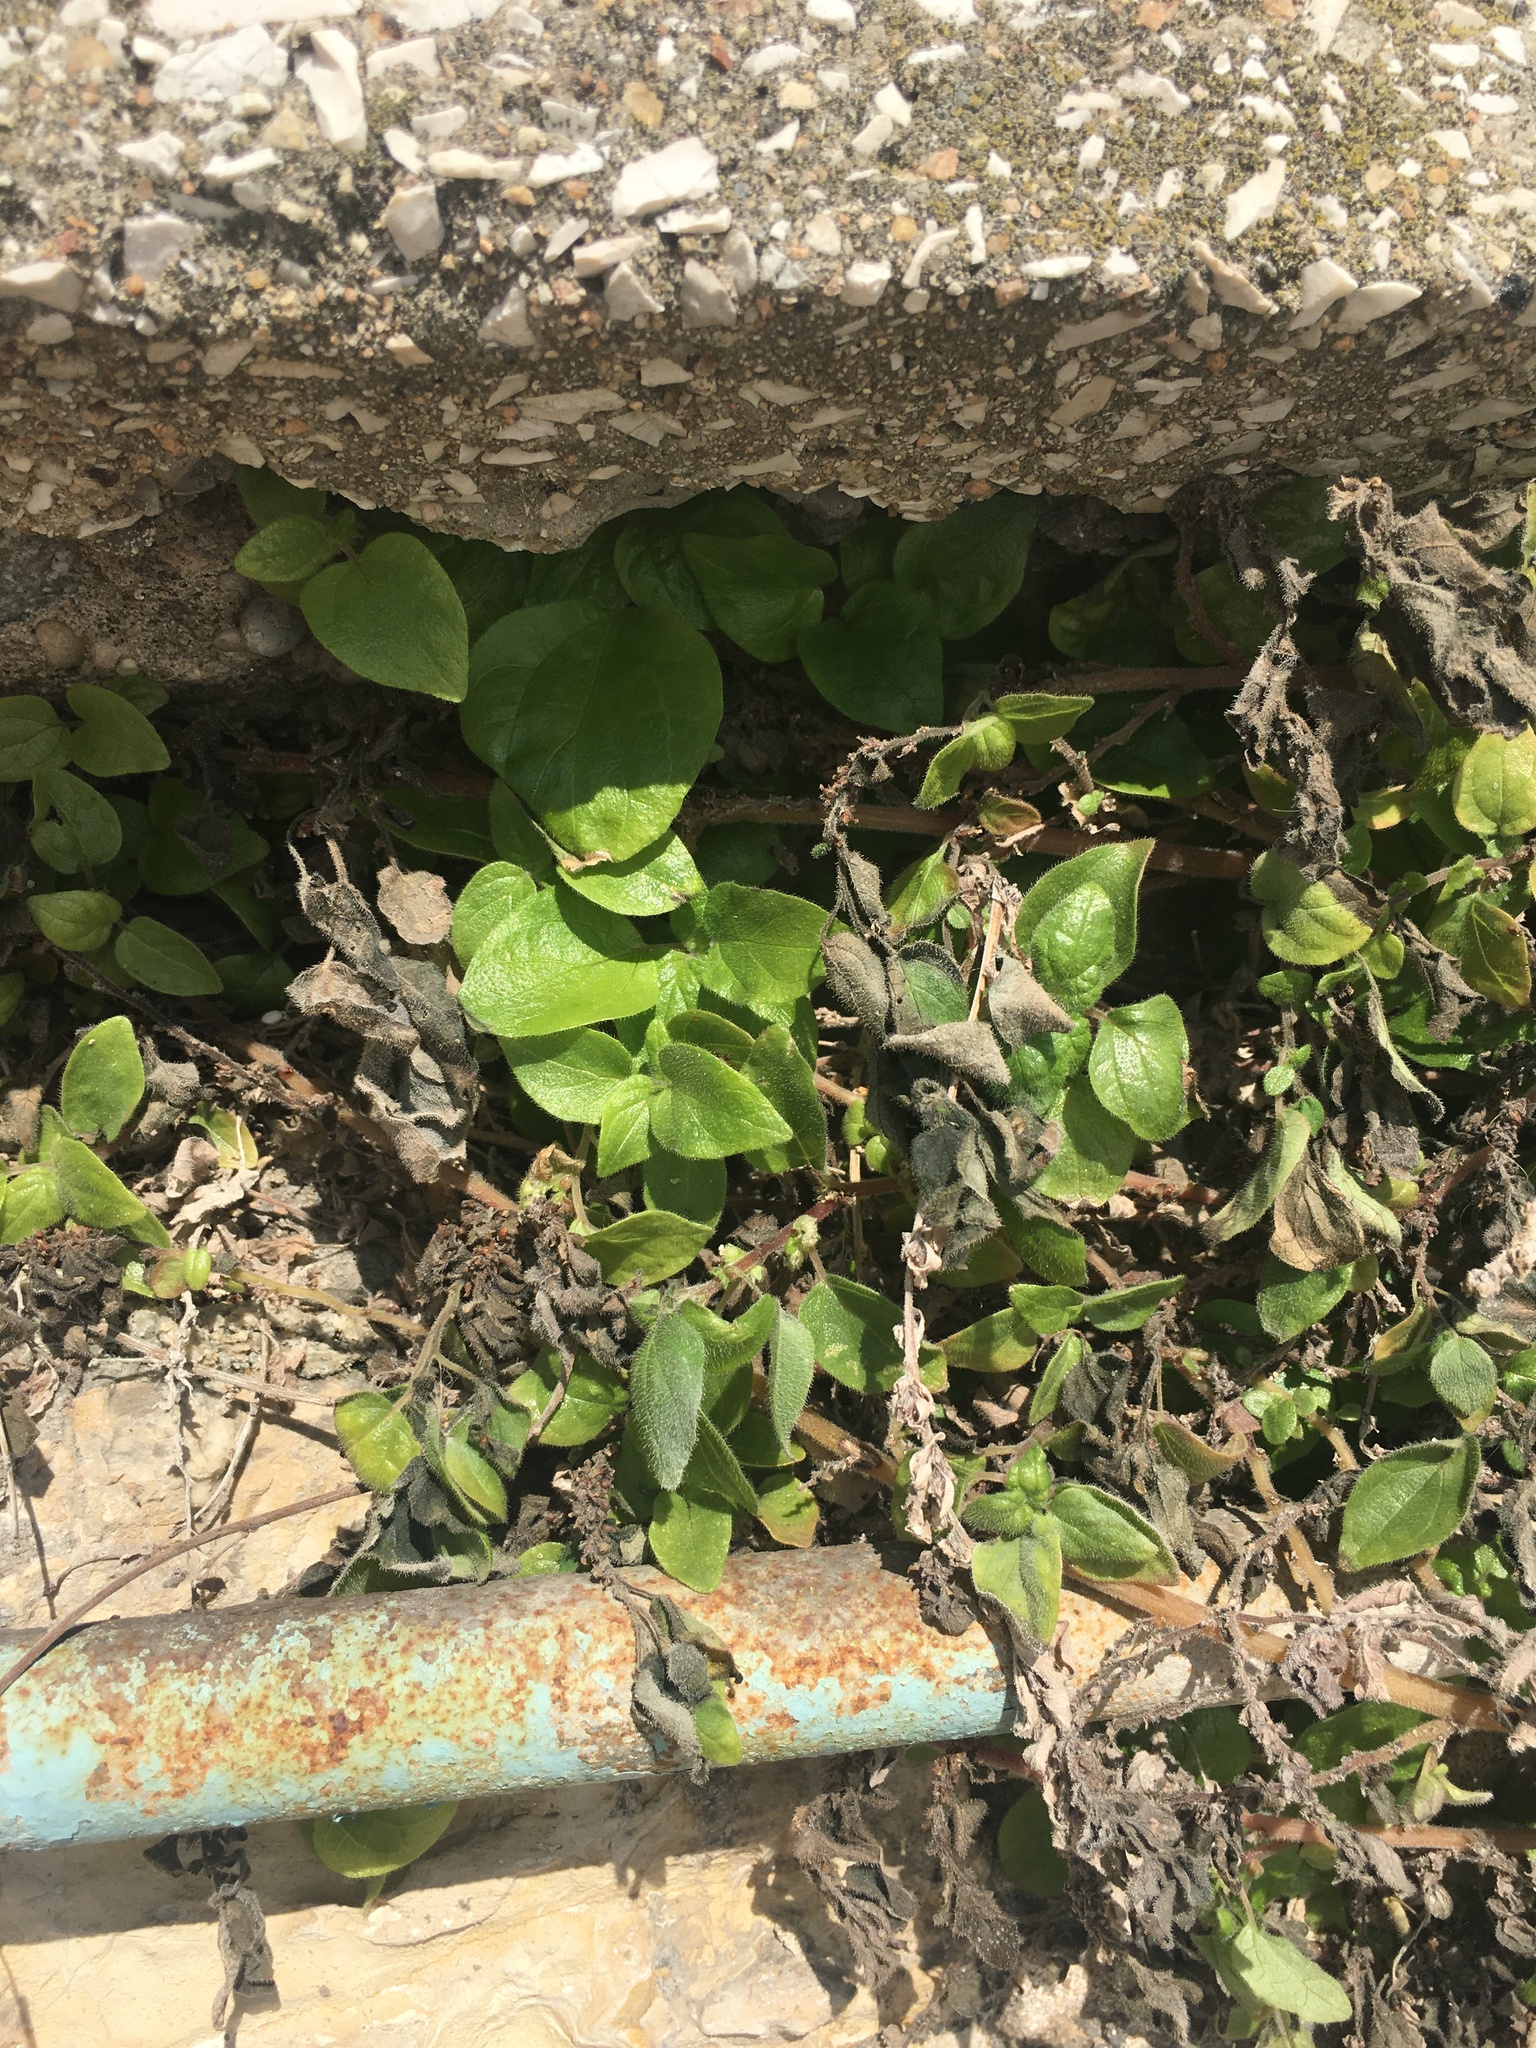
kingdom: Plantae
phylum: Tracheophyta
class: Magnoliopsida
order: Rosales
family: Urticaceae
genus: Parietaria
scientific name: Parietaria judaica
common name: Pellitory-of-the-wall
